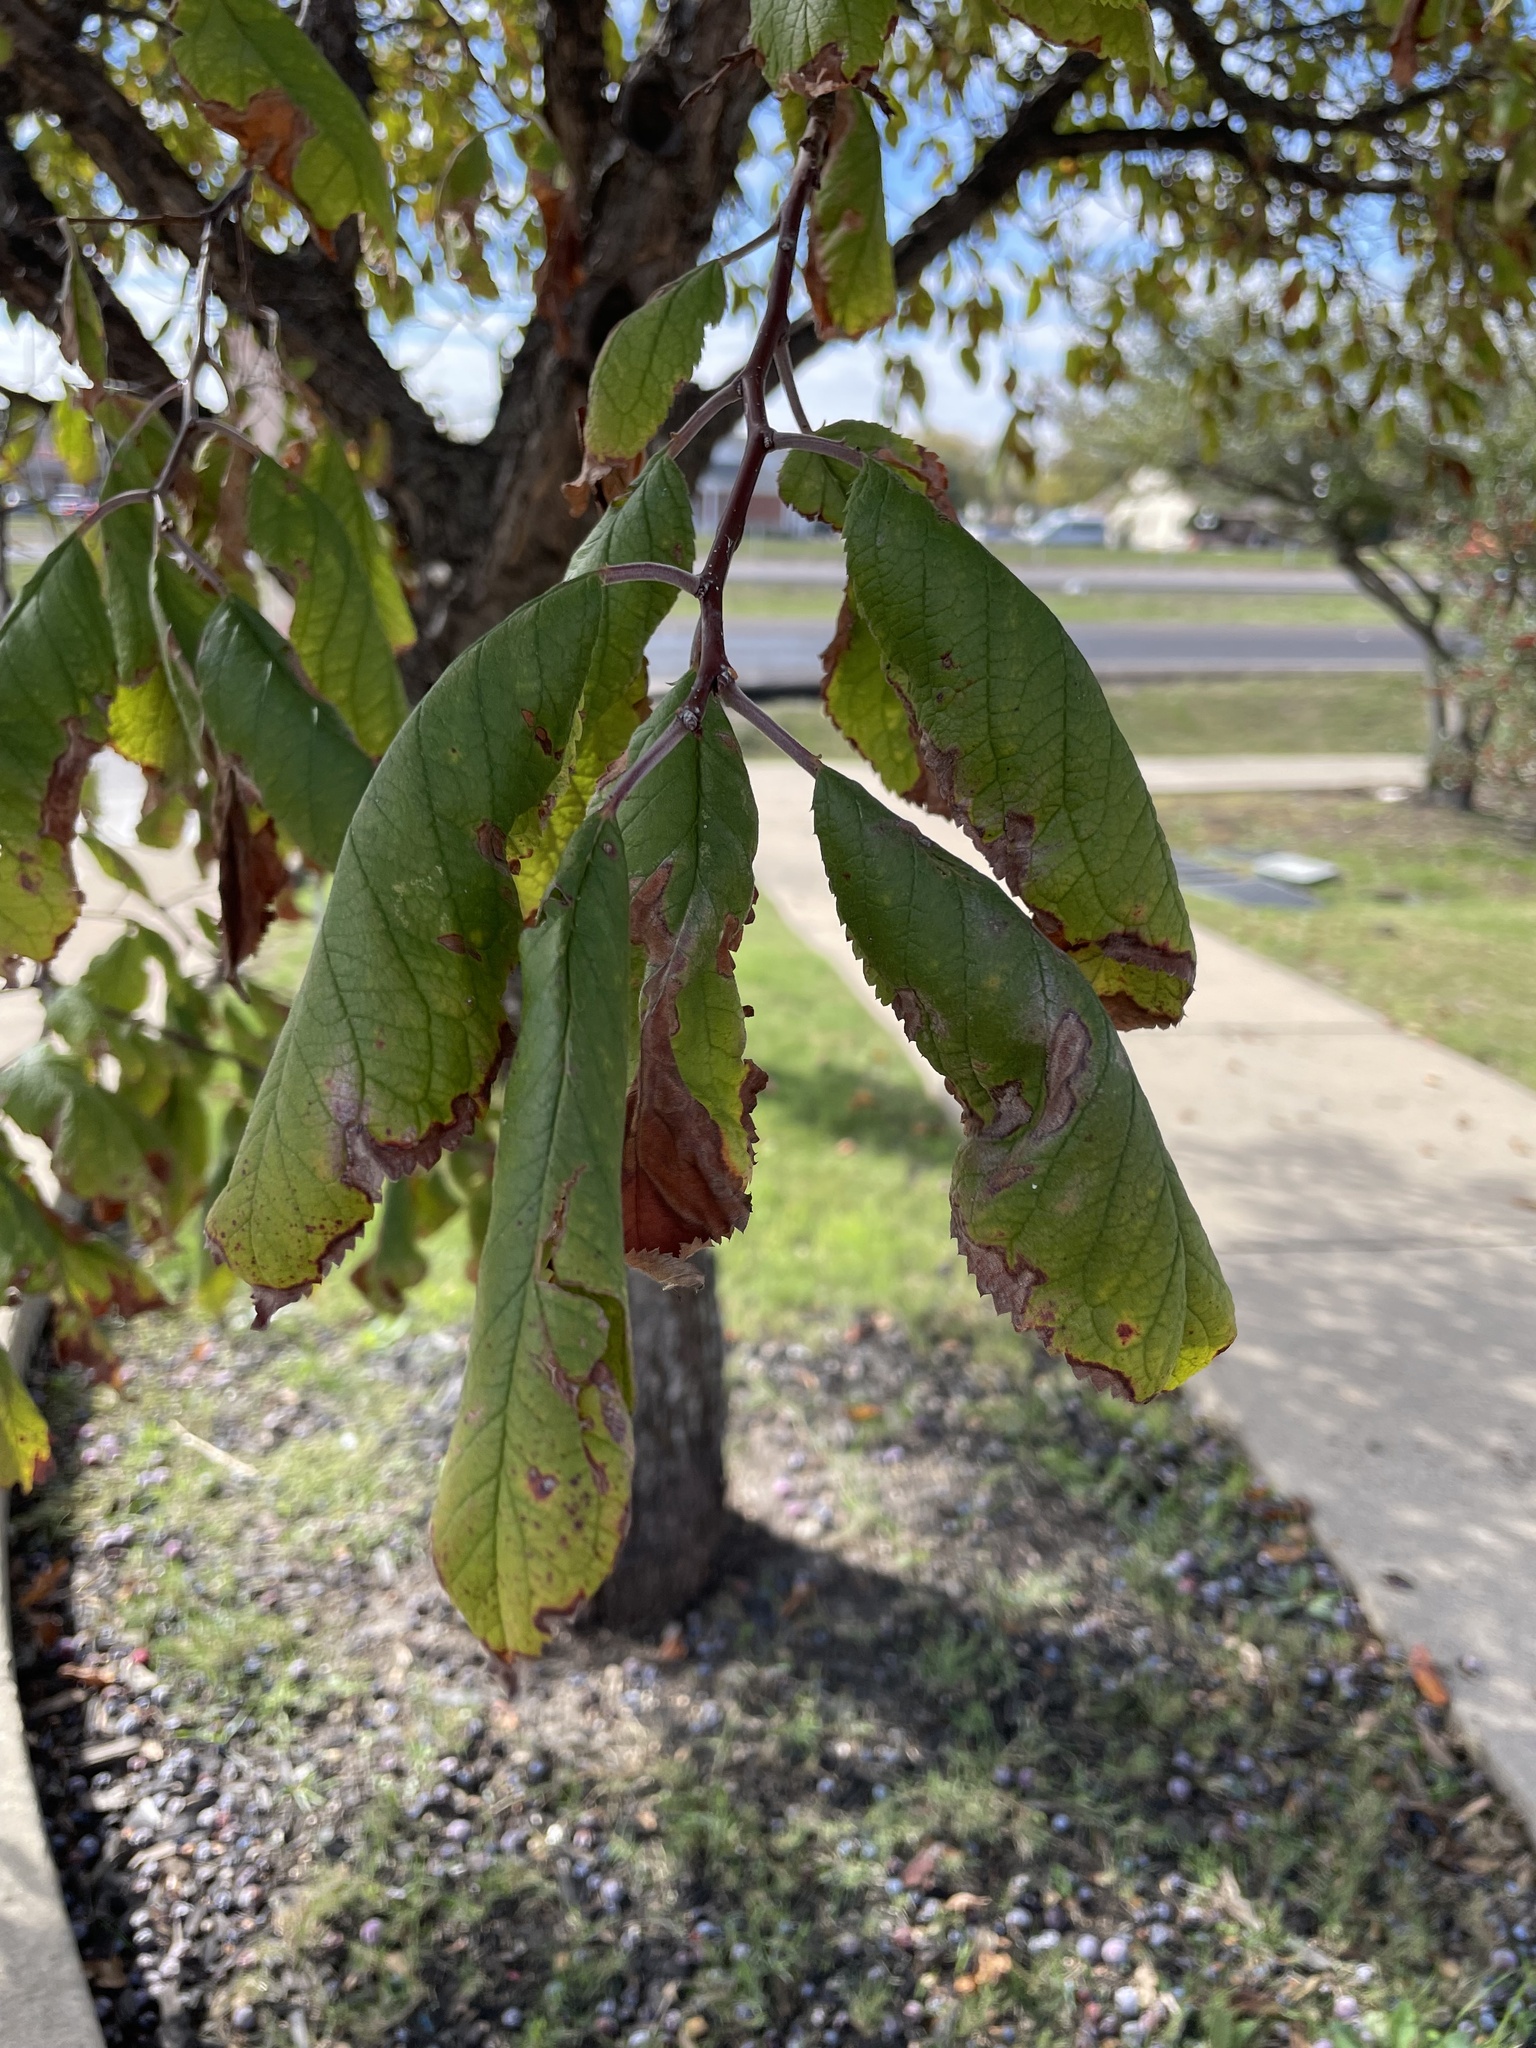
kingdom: Plantae
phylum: Tracheophyta
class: Magnoliopsida
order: Rosales
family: Rosaceae
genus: Prunus
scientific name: Prunus mexicana
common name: Mexican plum
